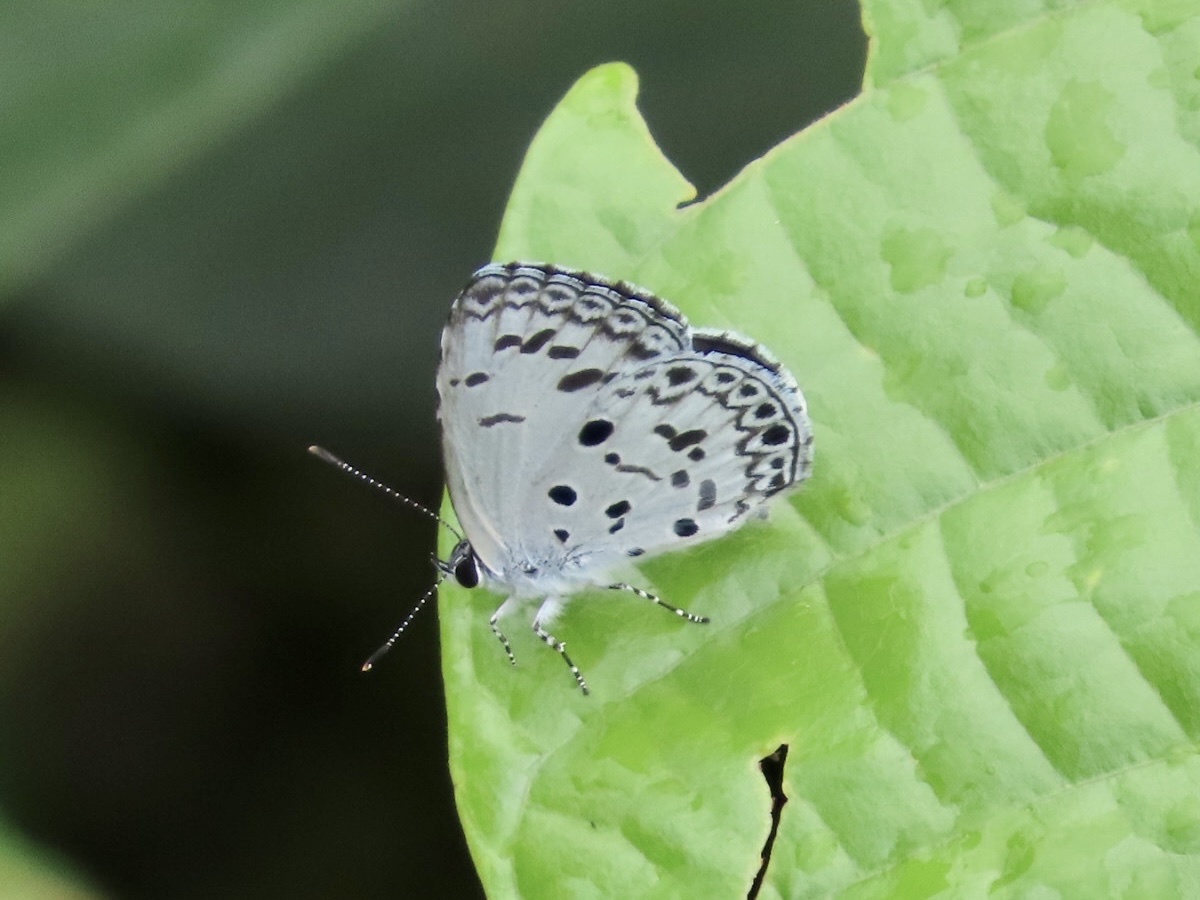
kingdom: Animalia
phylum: Arthropoda
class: Insecta
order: Lepidoptera
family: Lycaenidae
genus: Acytolepis
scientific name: Acytolepis puspa
